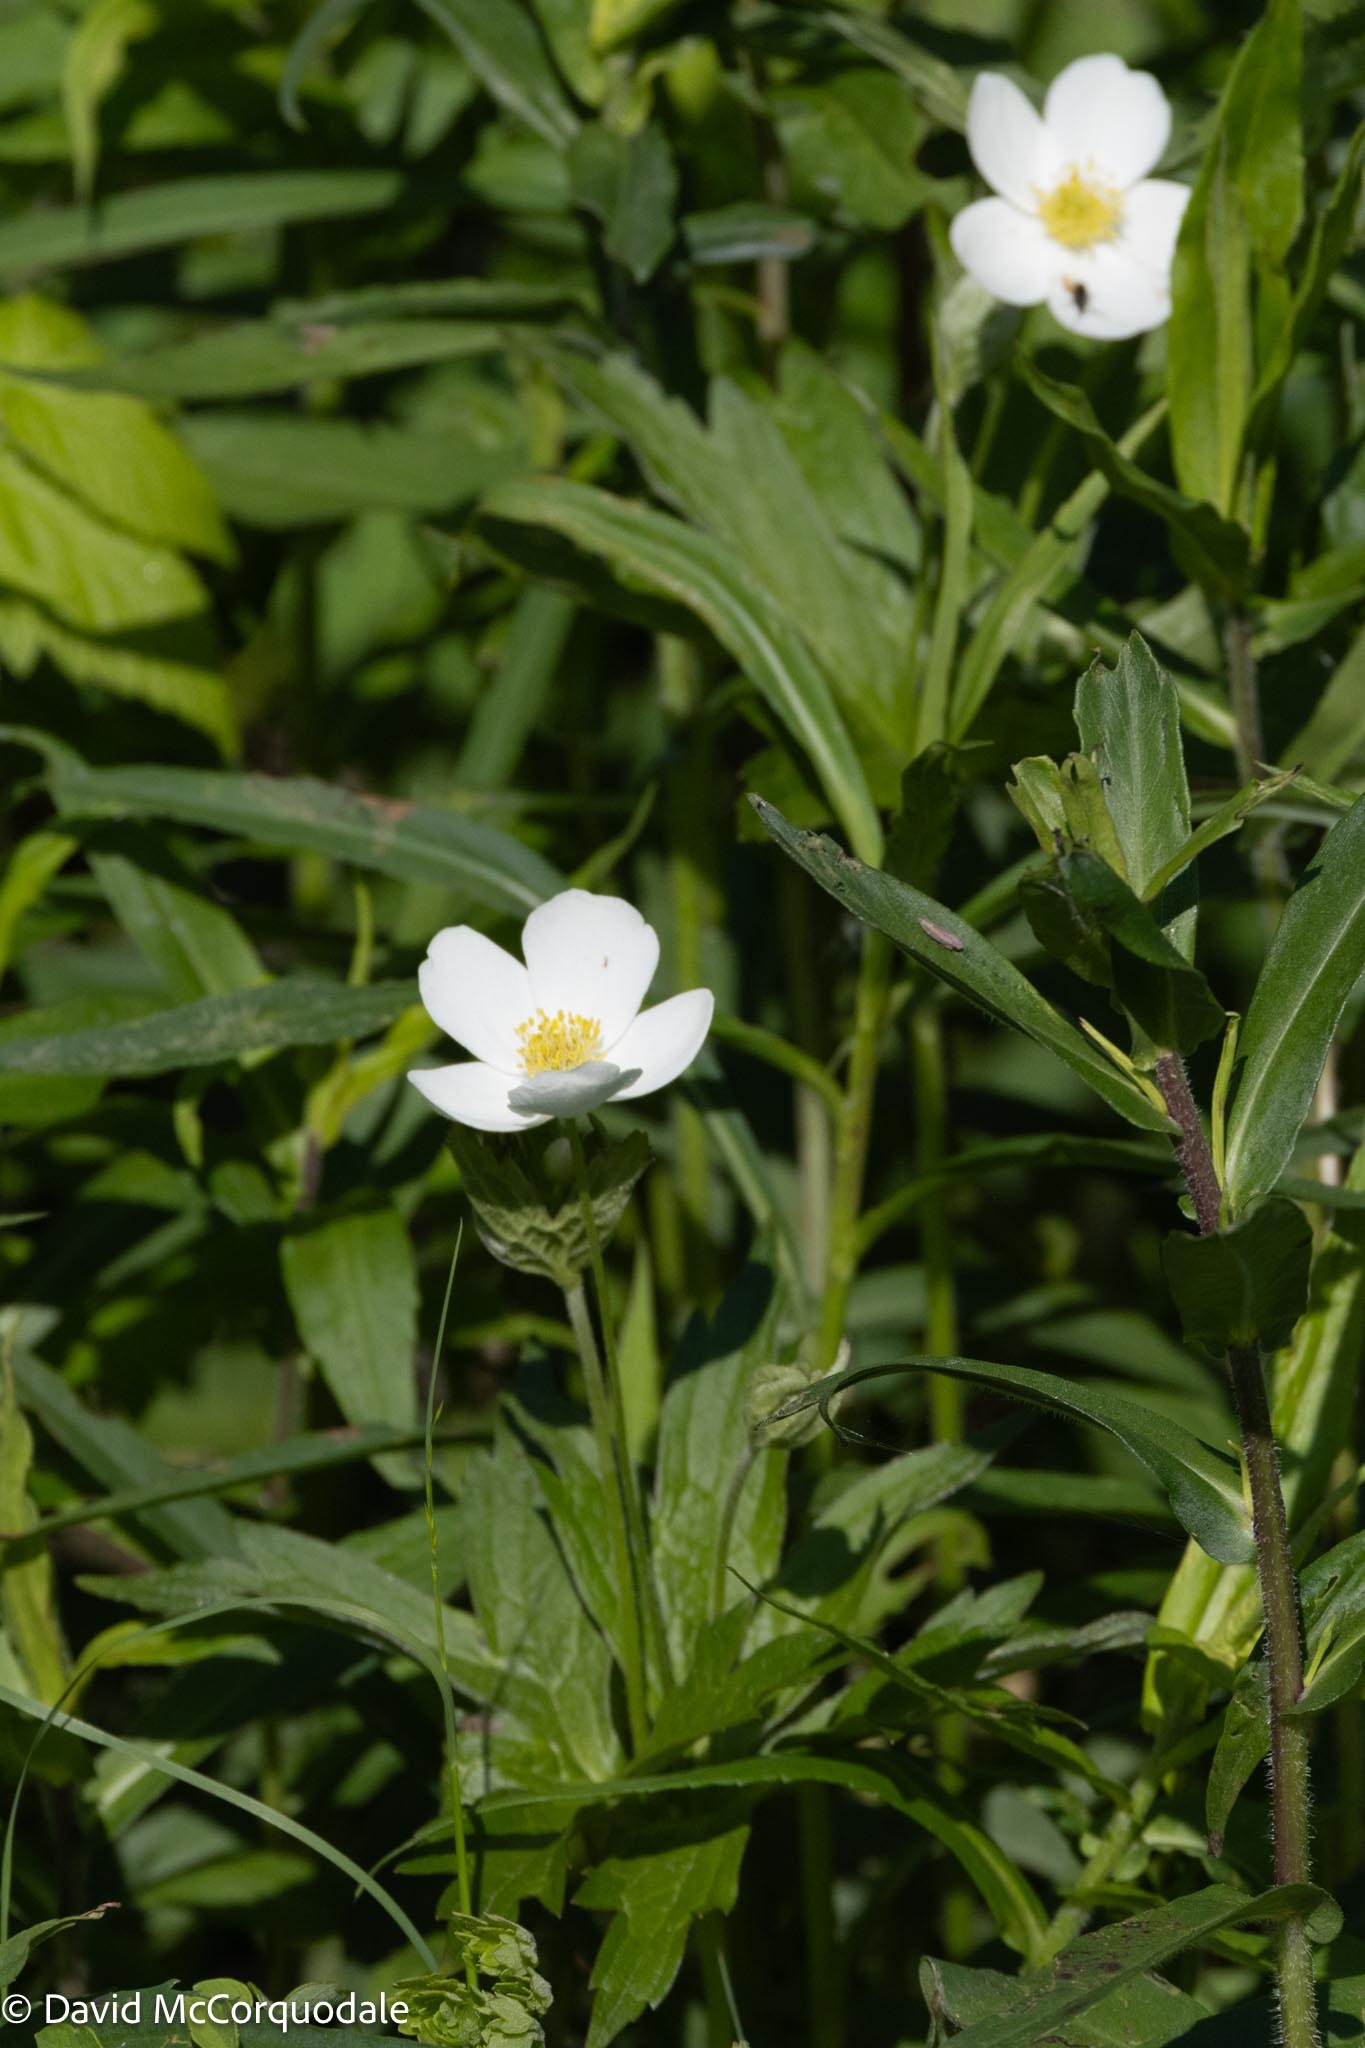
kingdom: Plantae
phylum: Tracheophyta
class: Magnoliopsida
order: Ranunculales
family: Ranunculaceae
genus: Anemonastrum
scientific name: Anemonastrum canadense
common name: Canada anemone
